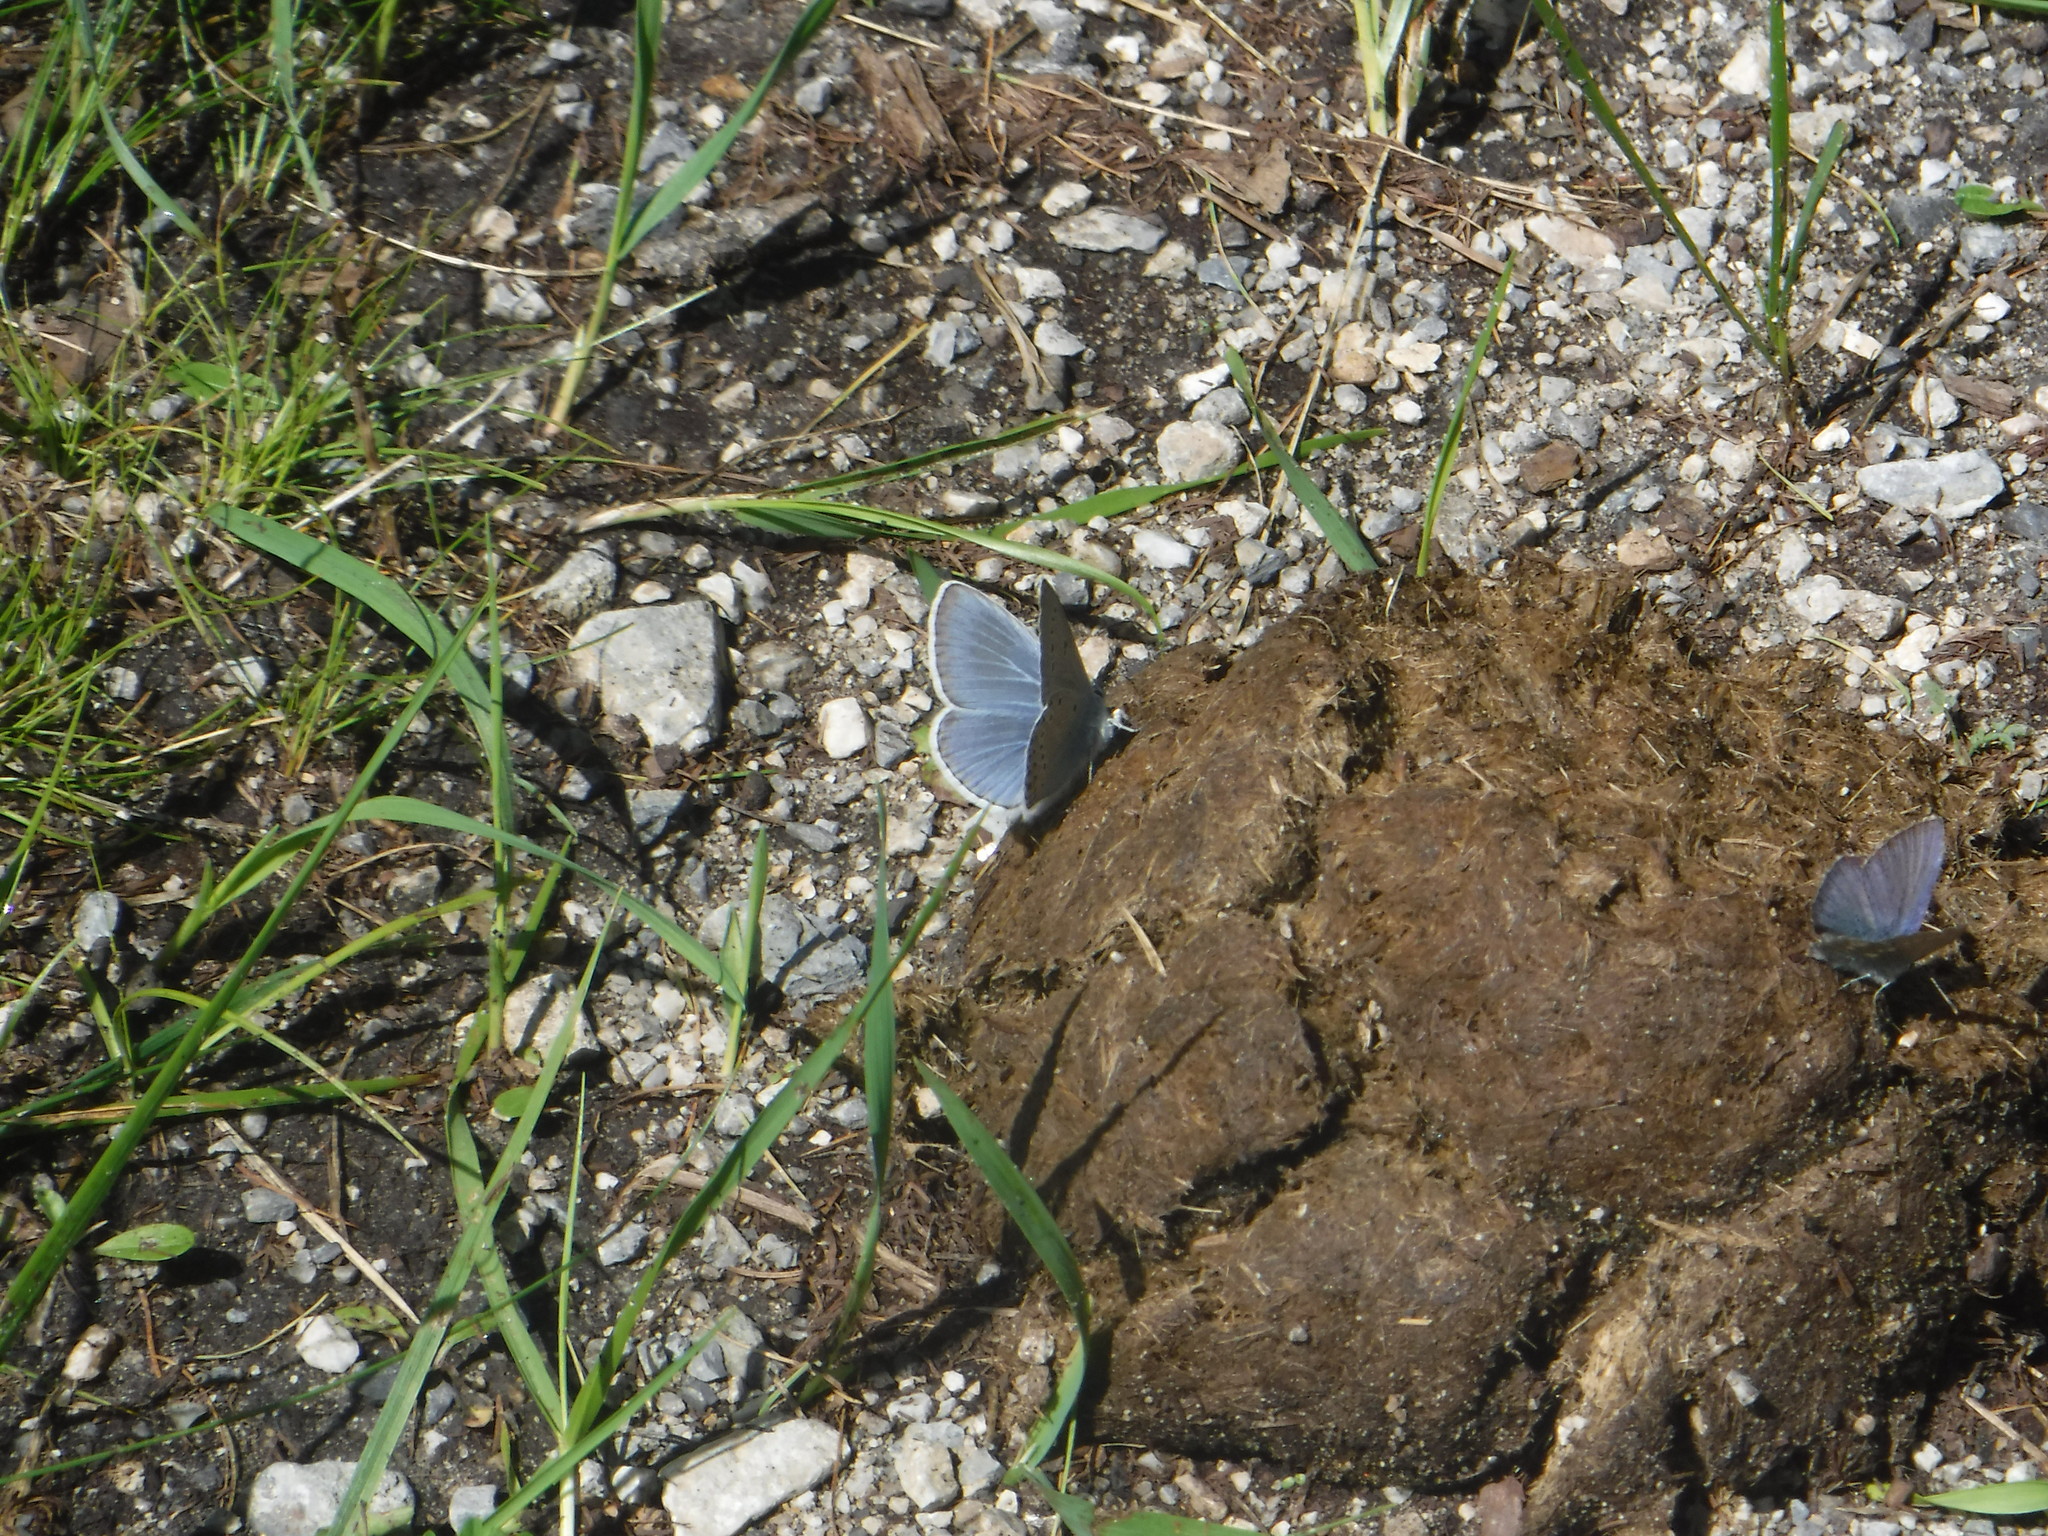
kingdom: Animalia
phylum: Arthropoda
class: Insecta
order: Lepidoptera
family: Lycaenidae
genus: Plebejus
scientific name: Plebejus amanda
